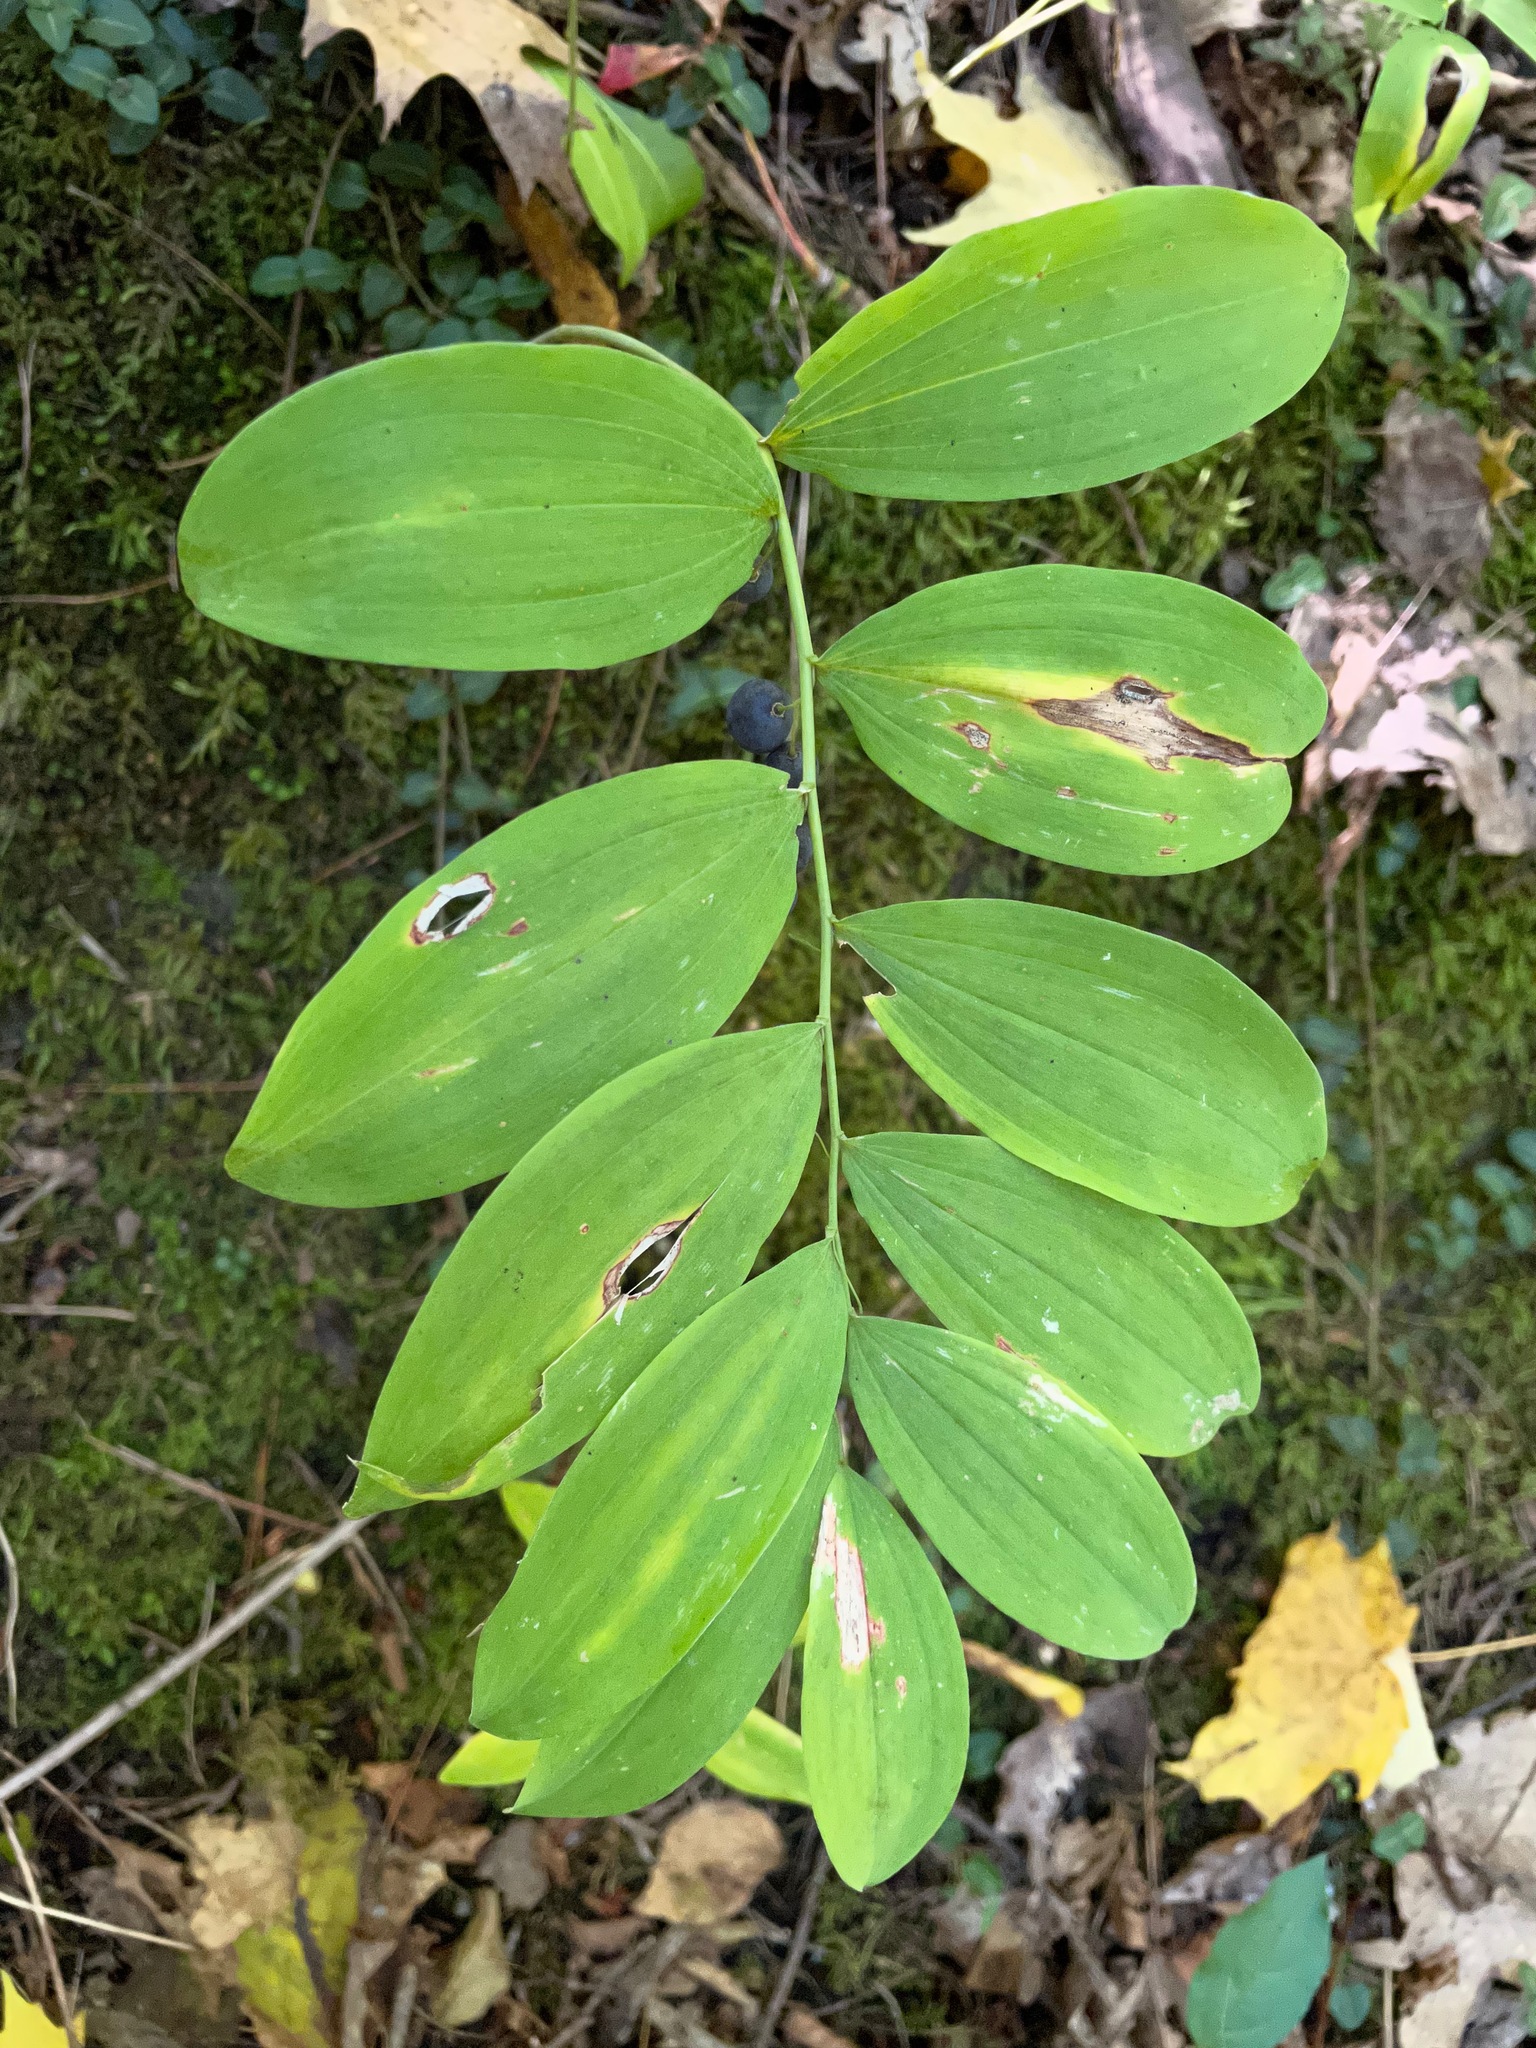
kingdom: Plantae
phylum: Tracheophyta
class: Liliopsida
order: Asparagales
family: Asparagaceae
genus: Polygonatum
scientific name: Polygonatum pubescens
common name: Downy solomon's seal
